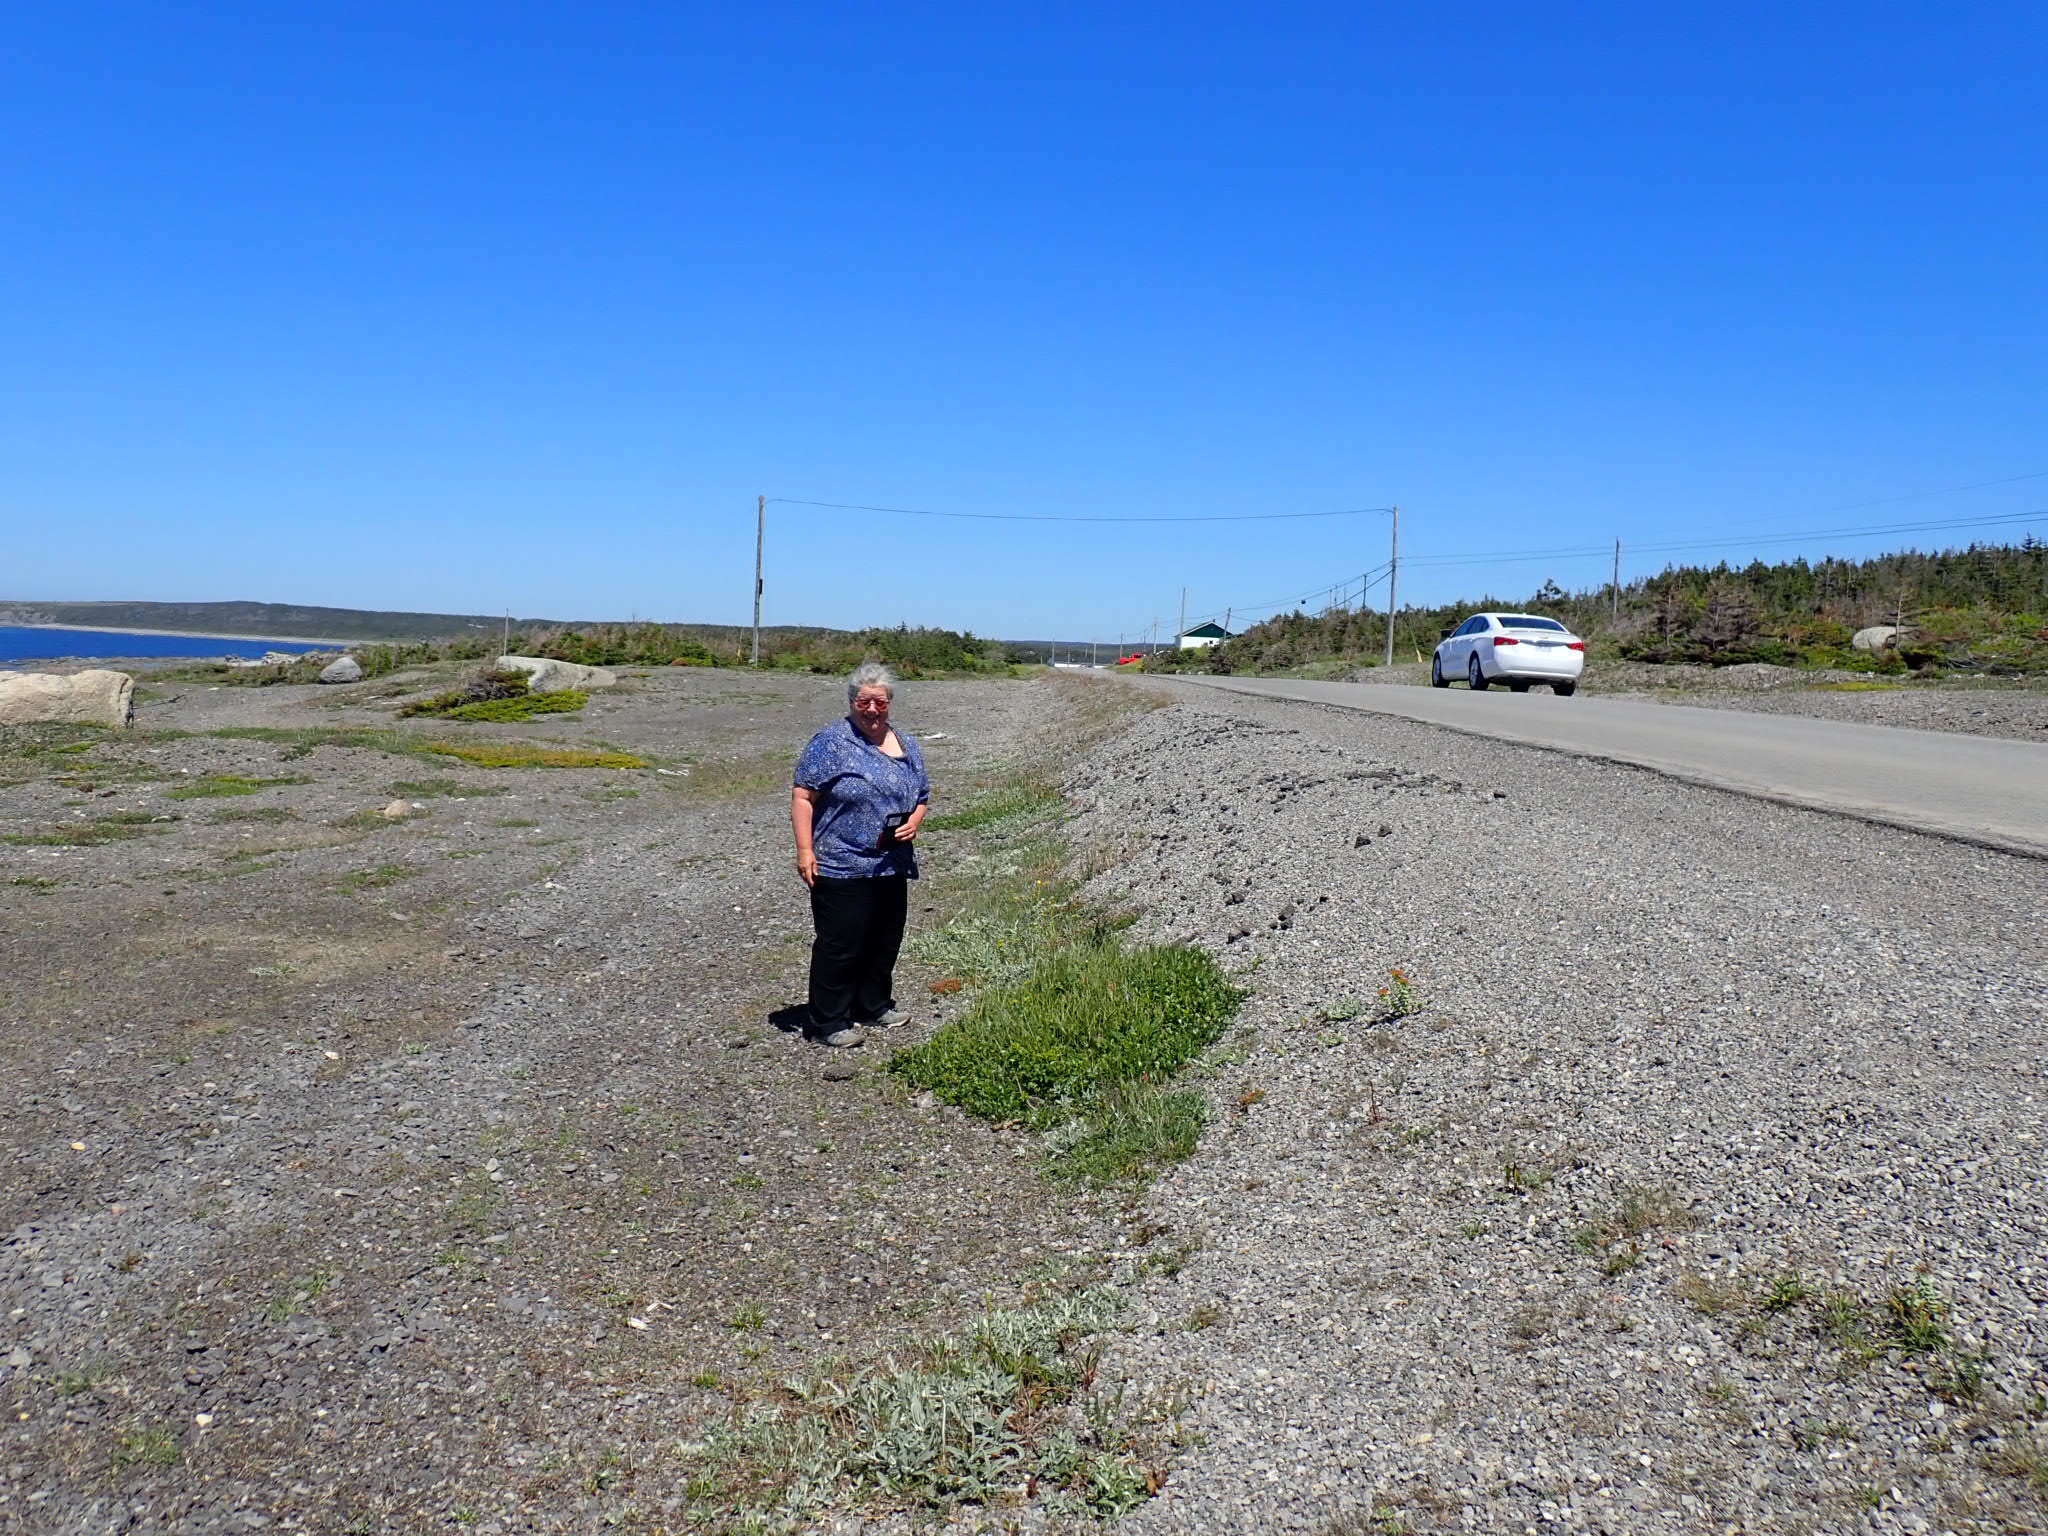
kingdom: Plantae
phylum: Tracheophyta
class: Magnoliopsida
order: Malpighiales
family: Salicaceae
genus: Salix
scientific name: Salix glauca
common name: Glaucous willow
